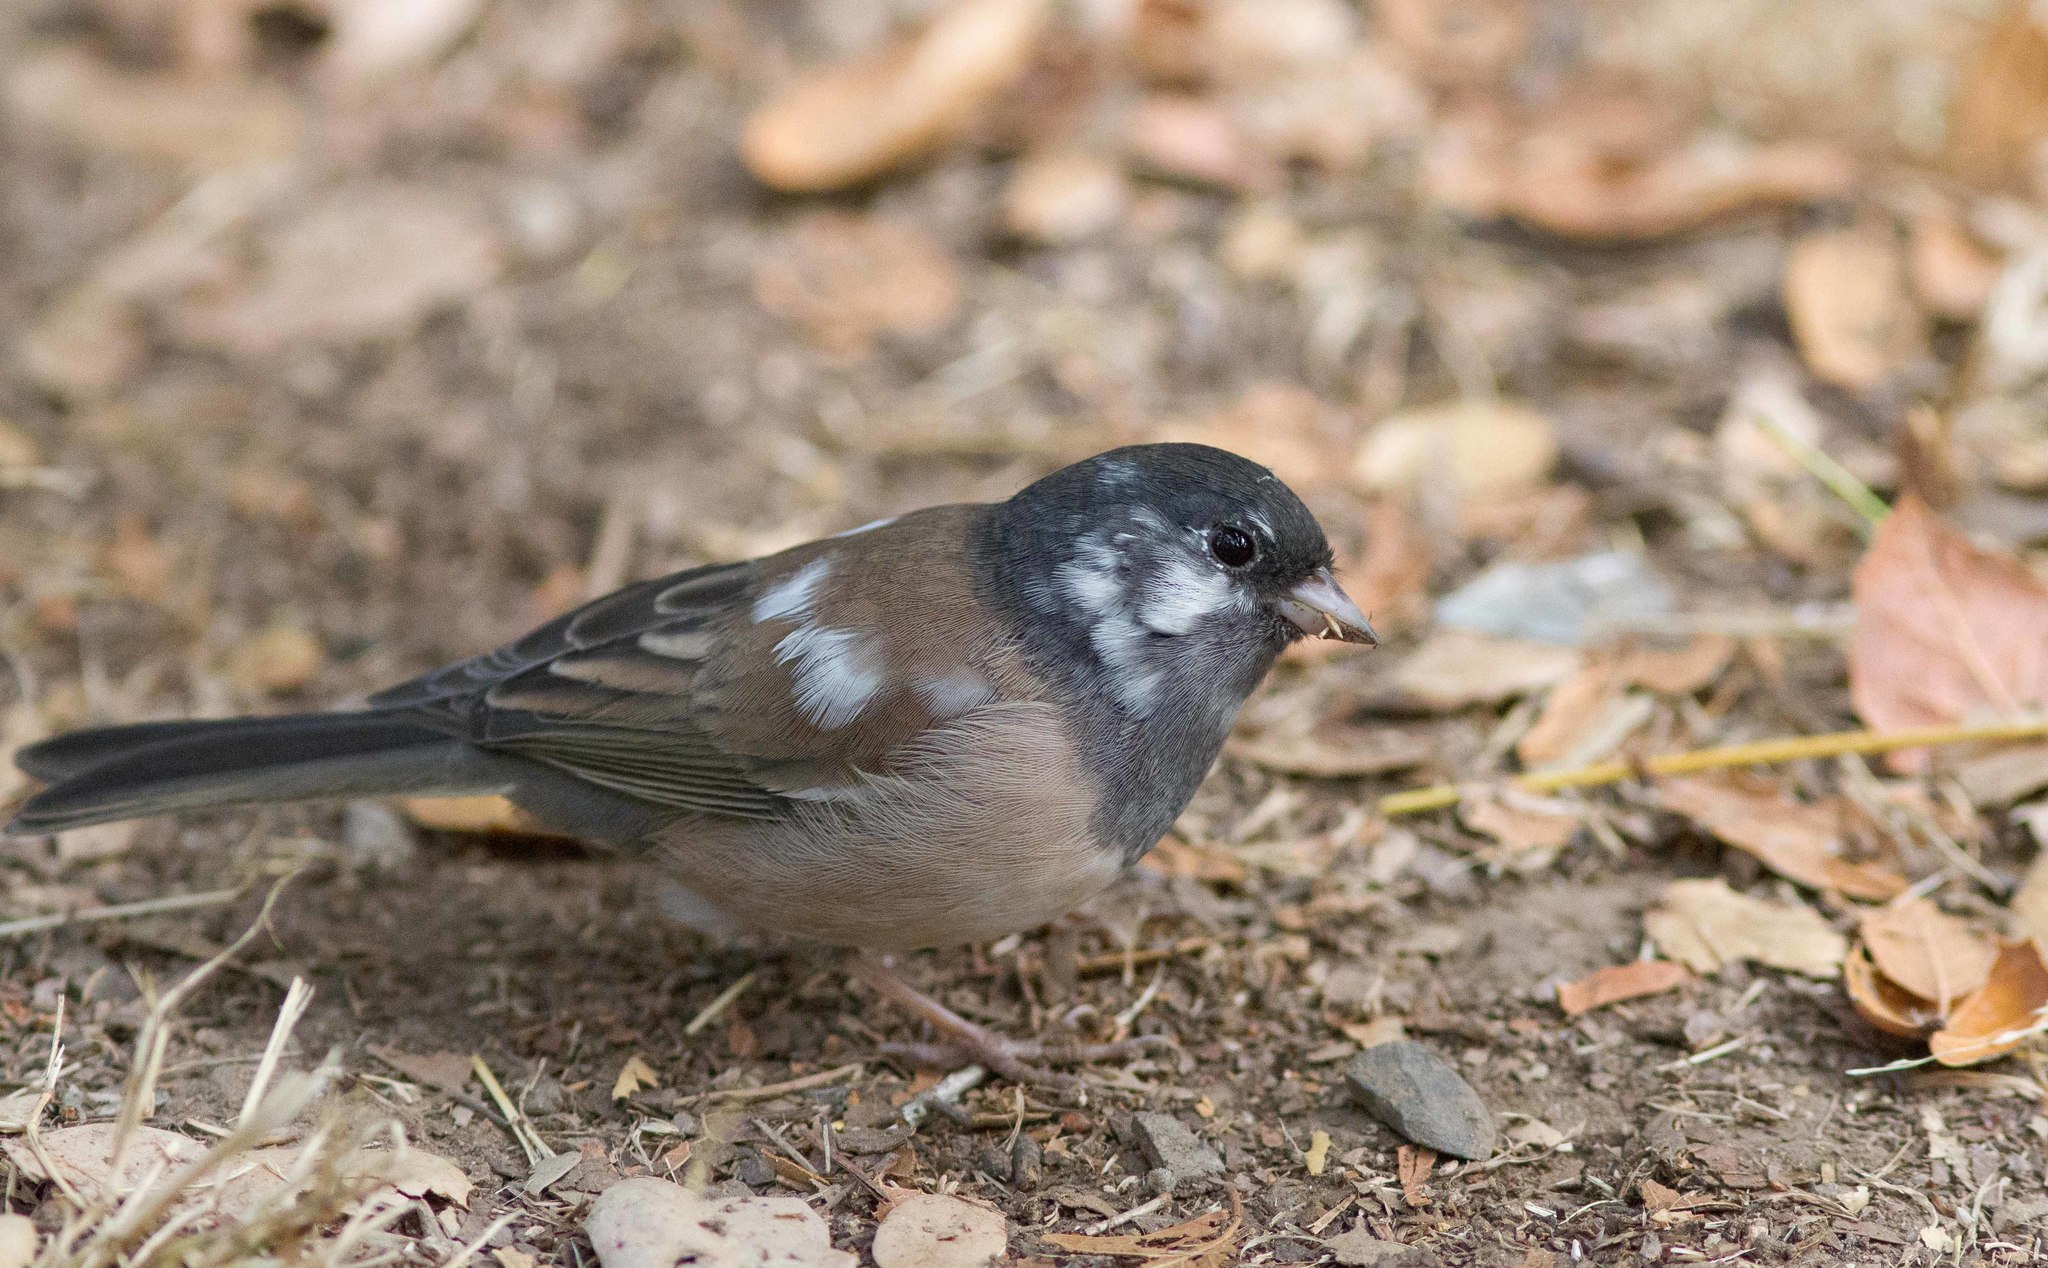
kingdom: Animalia
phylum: Chordata
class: Aves
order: Passeriformes
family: Passerellidae
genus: Junco
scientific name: Junco hyemalis
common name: Dark-eyed junco
